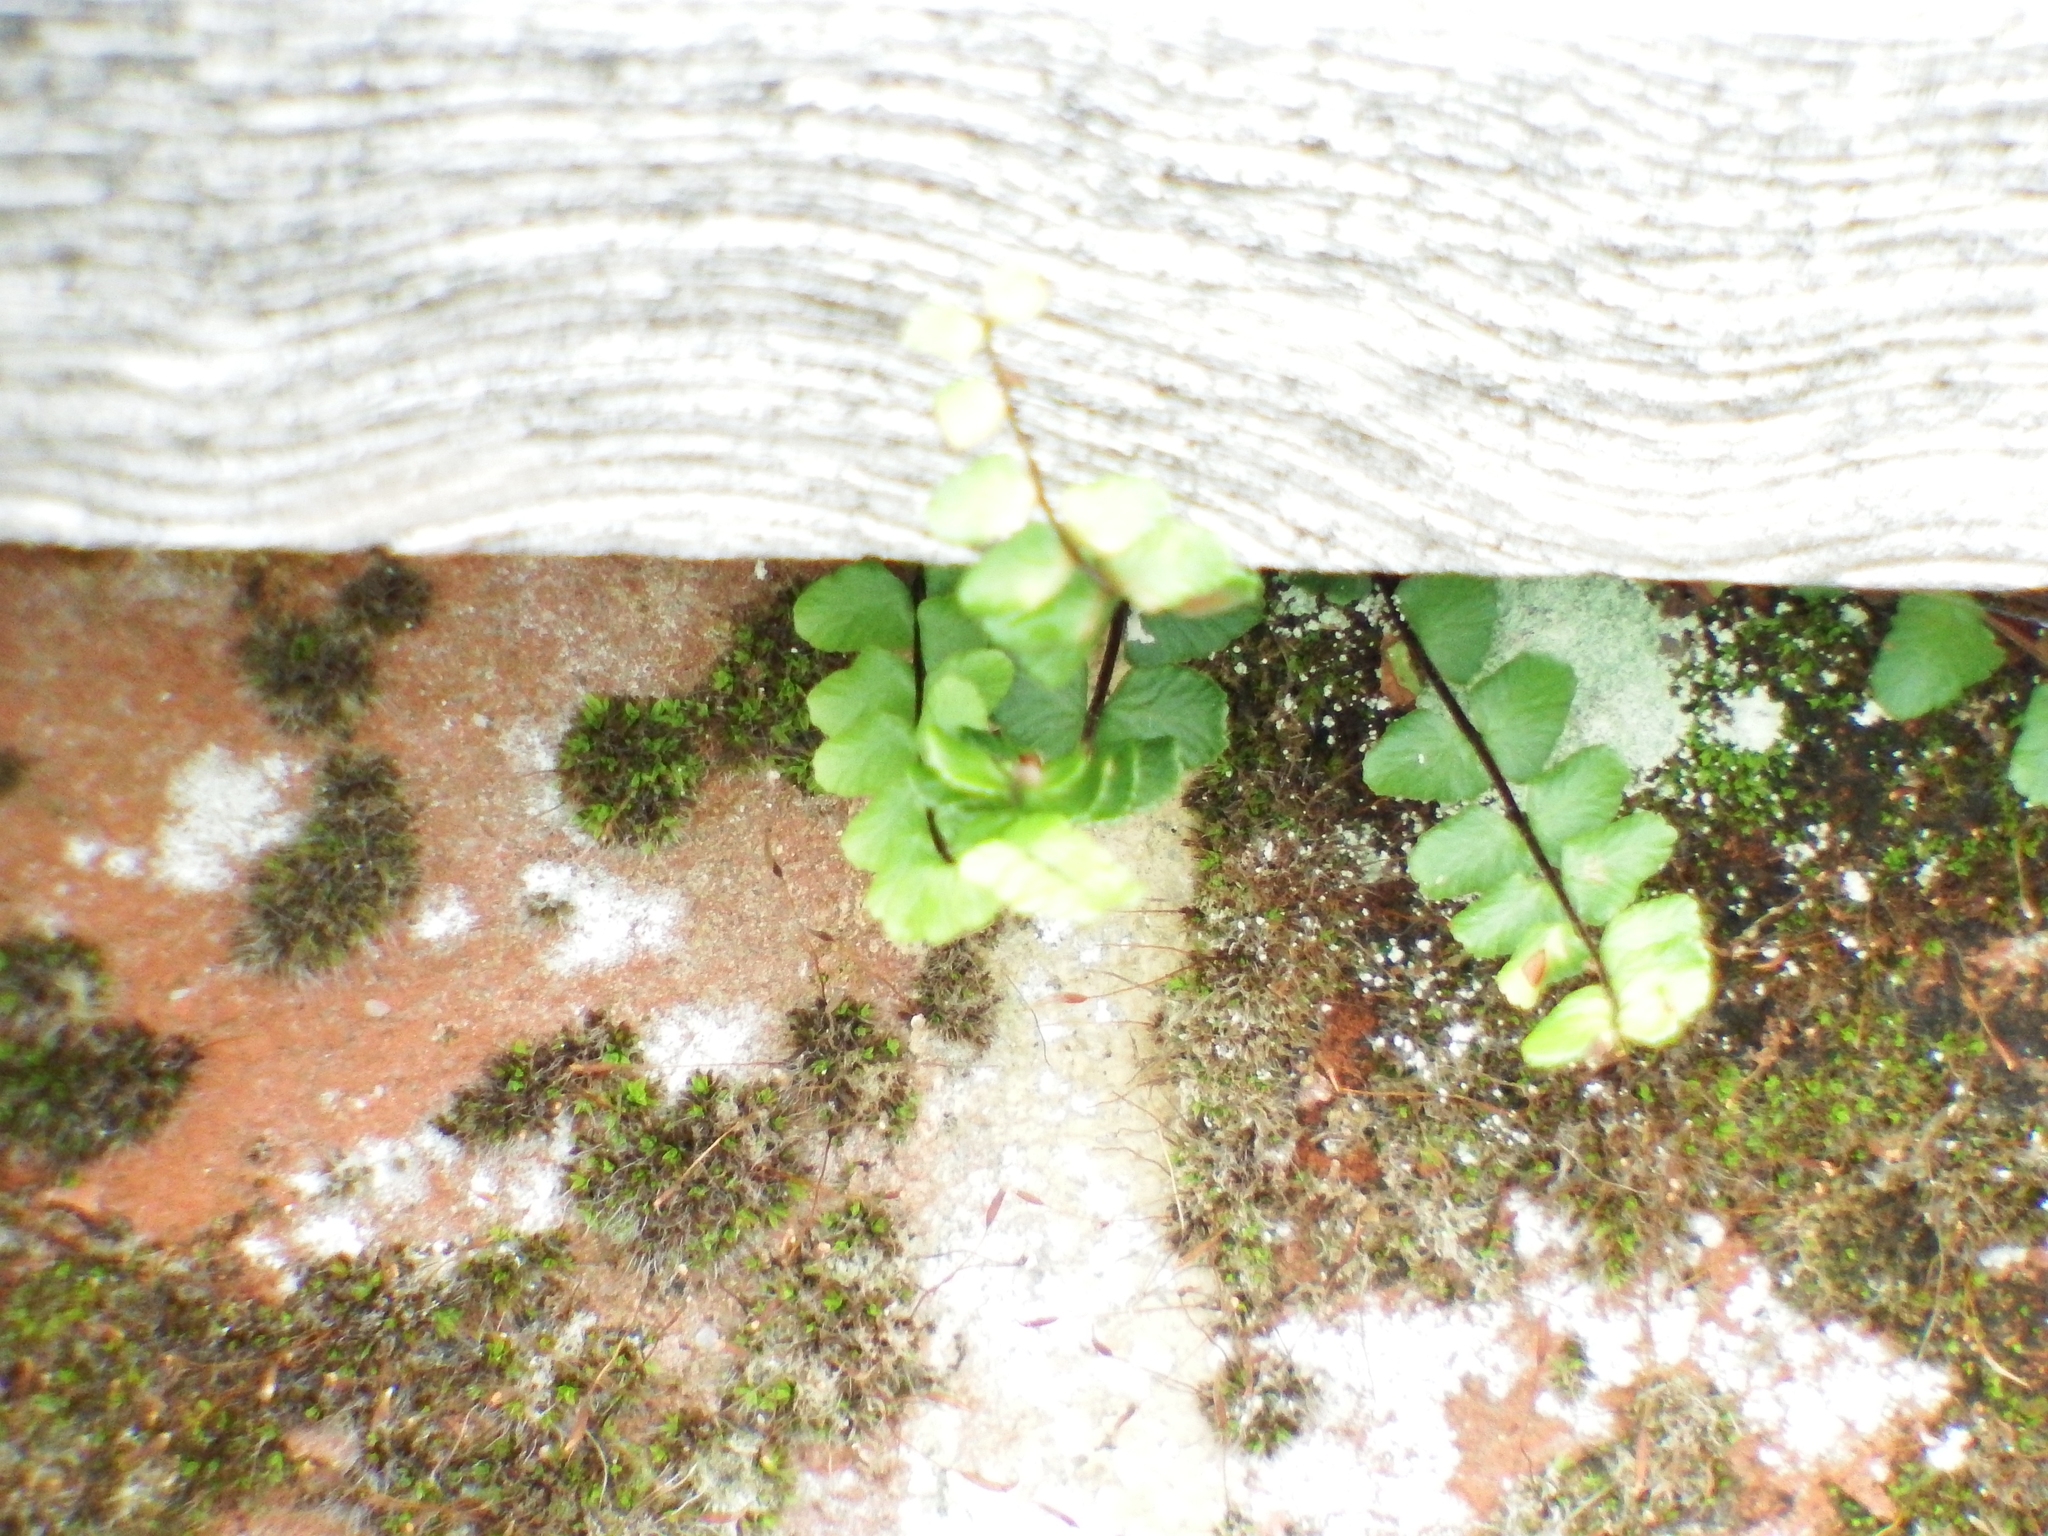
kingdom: Plantae
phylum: Tracheophyta
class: Polypodiopsida
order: Polypodiales
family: Aspleniaceae
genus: Asplenium
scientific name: Asplenium trichomanes
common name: Maidenhair spleenwort
